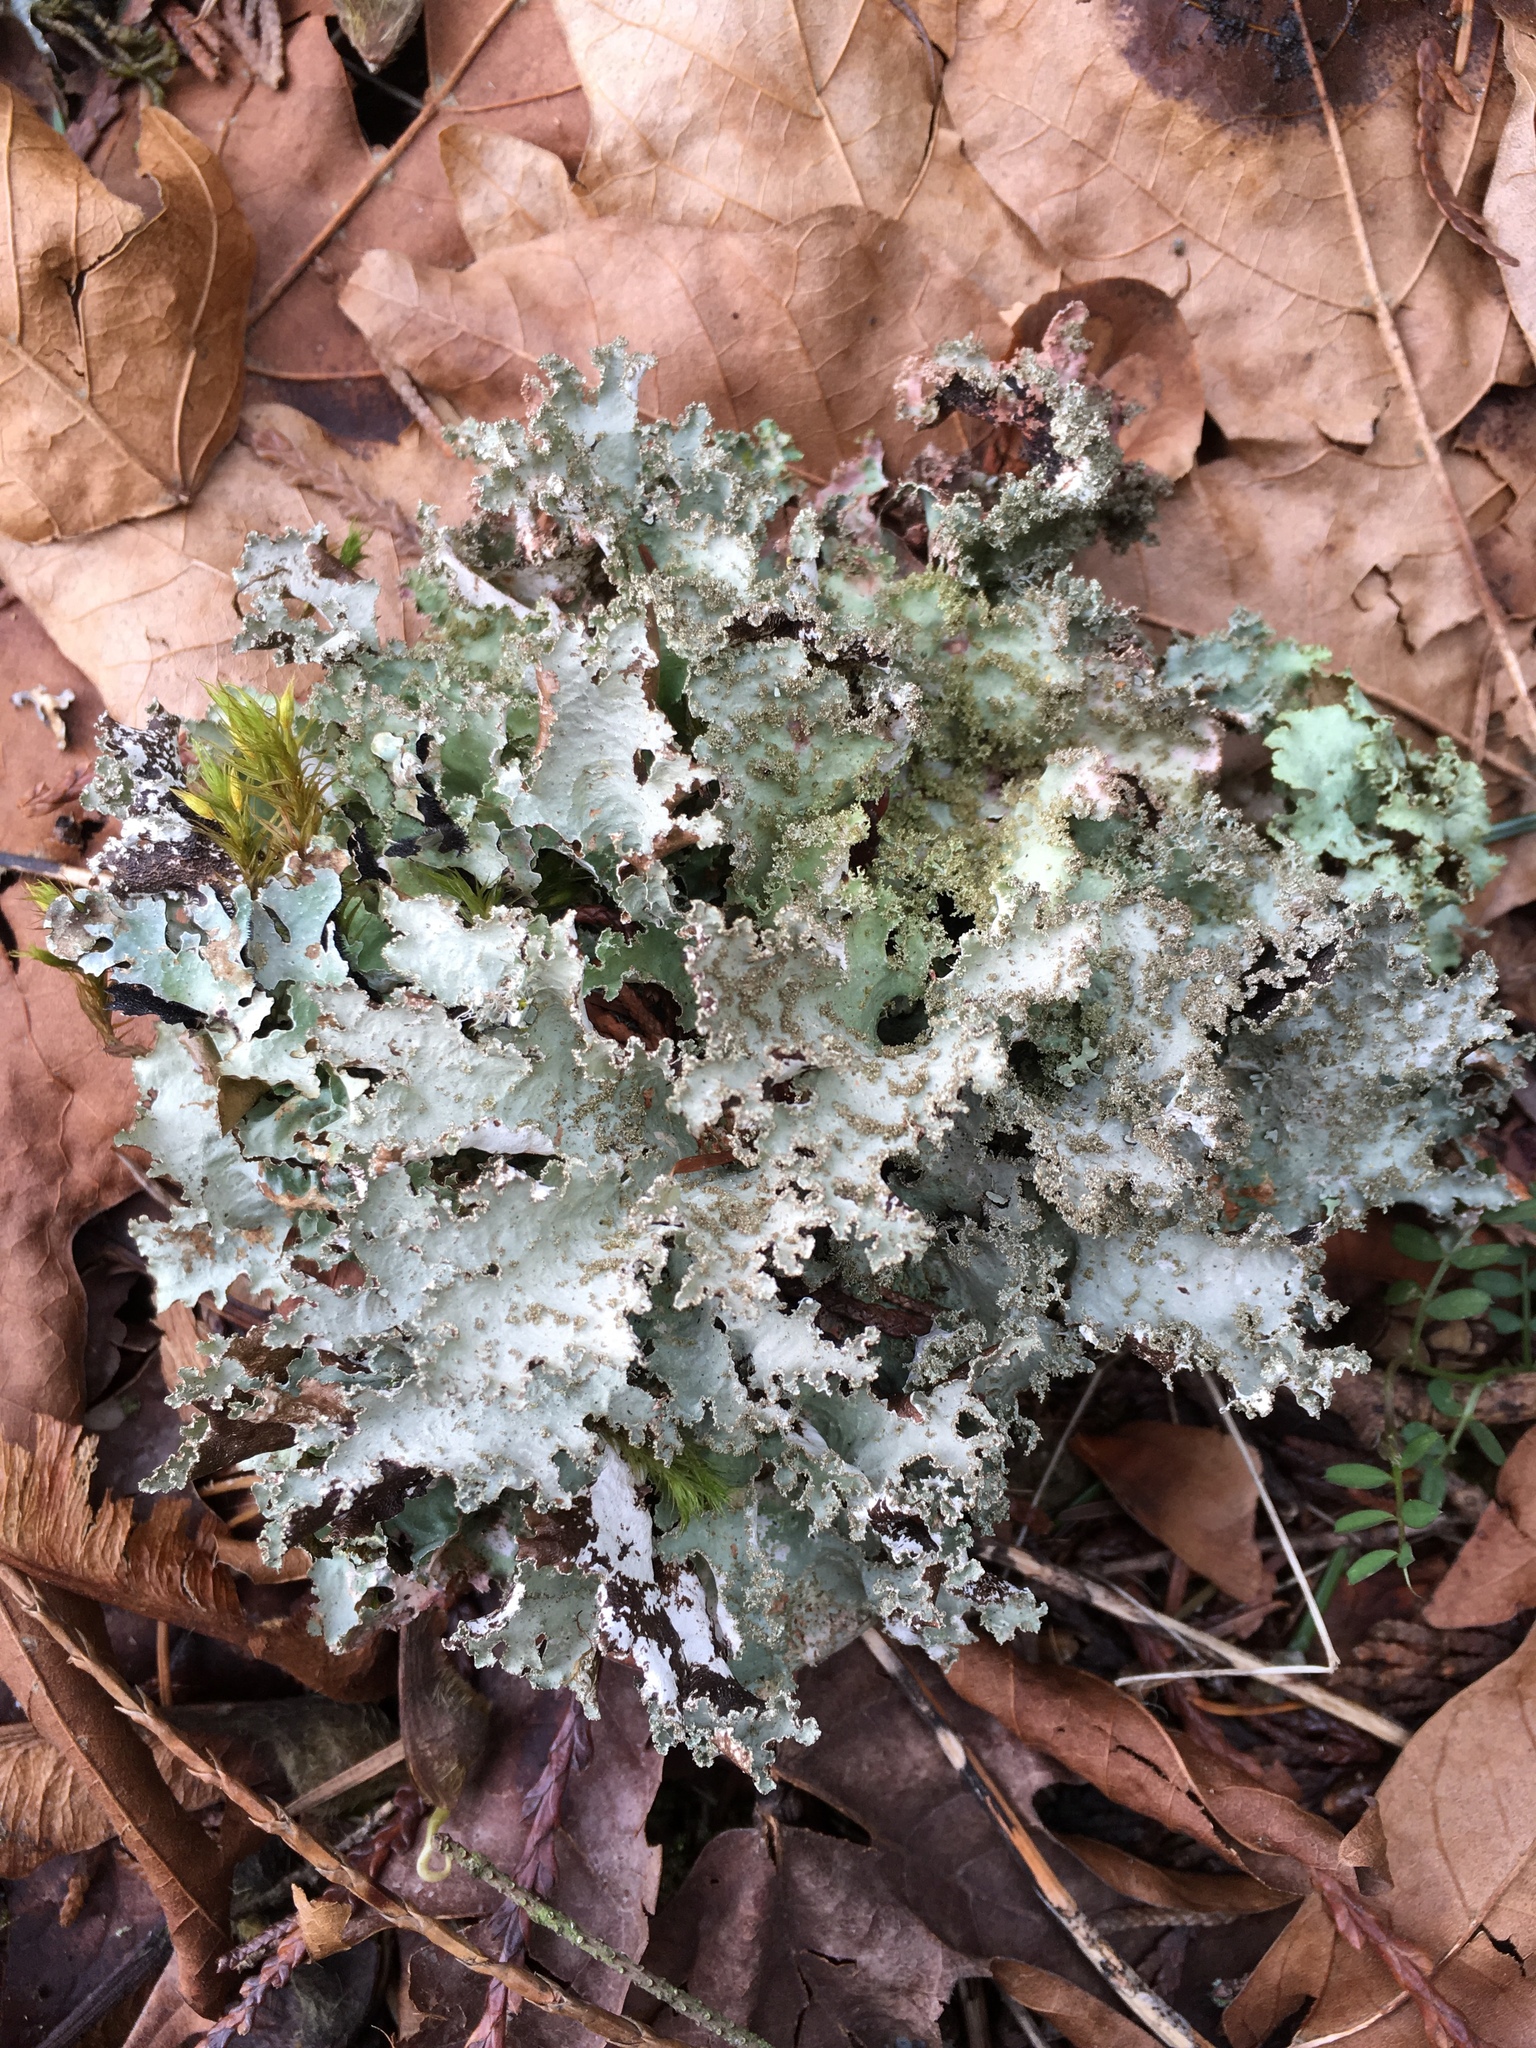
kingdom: Fungi
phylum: Ascomycota
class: Lecanoromycetes
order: Lecanorales
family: Parmeliaceae
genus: Platismatia
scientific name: Platismatia glauca
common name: Varied rag lichen
